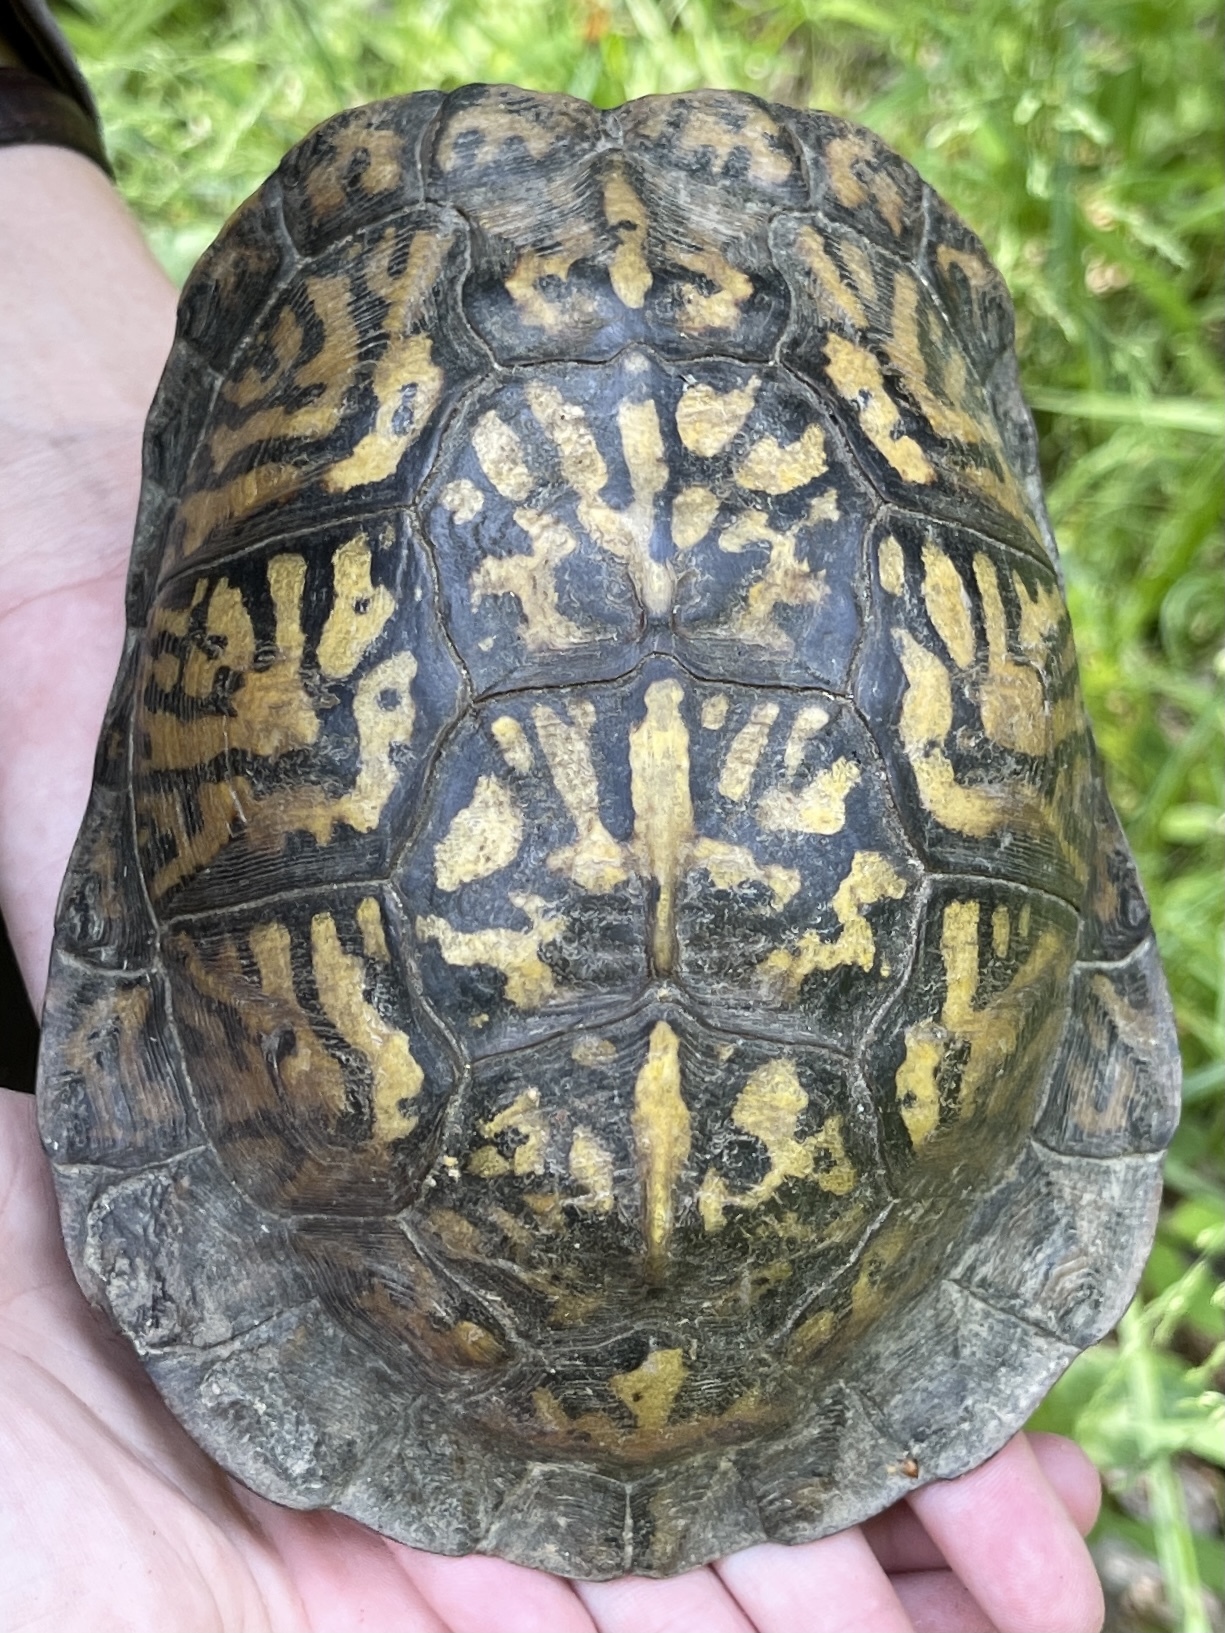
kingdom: Animalia
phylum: Chordata
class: Testudines
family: Emydidae
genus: Terrapene
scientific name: Terrapene carolina
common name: Common box turtle
